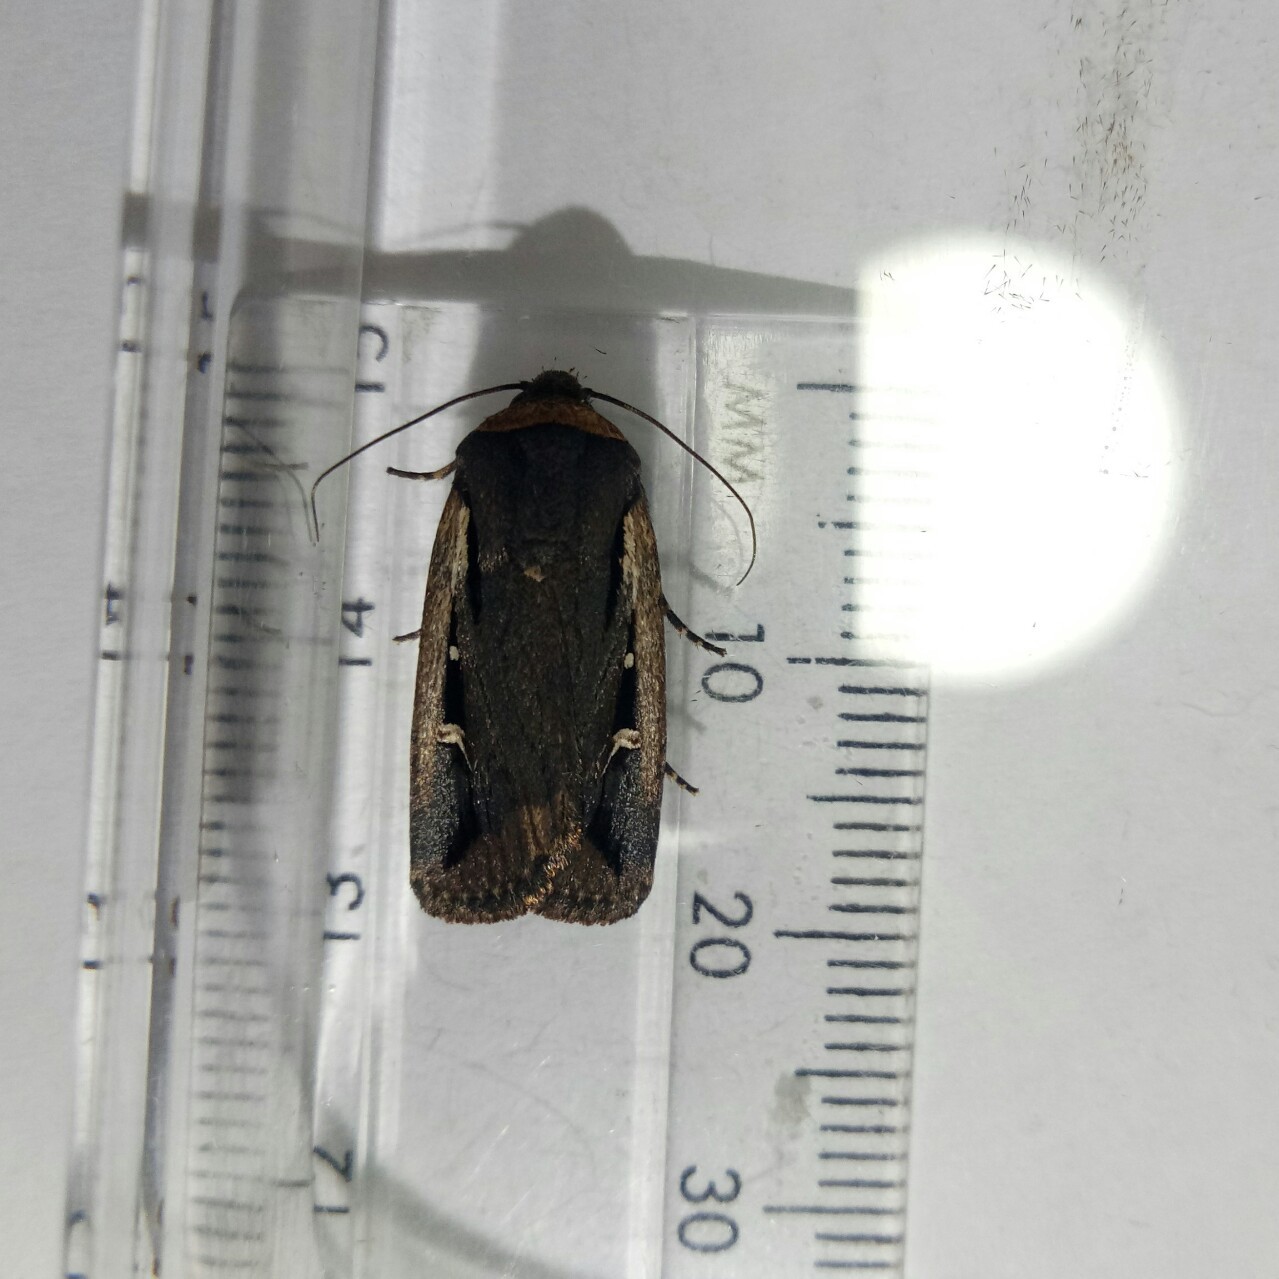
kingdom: Animalia
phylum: Arthropoda
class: Insecta
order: Lepidoptera
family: Noctuidae
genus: Proteuxoa
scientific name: Proteuxoa tortisigna
